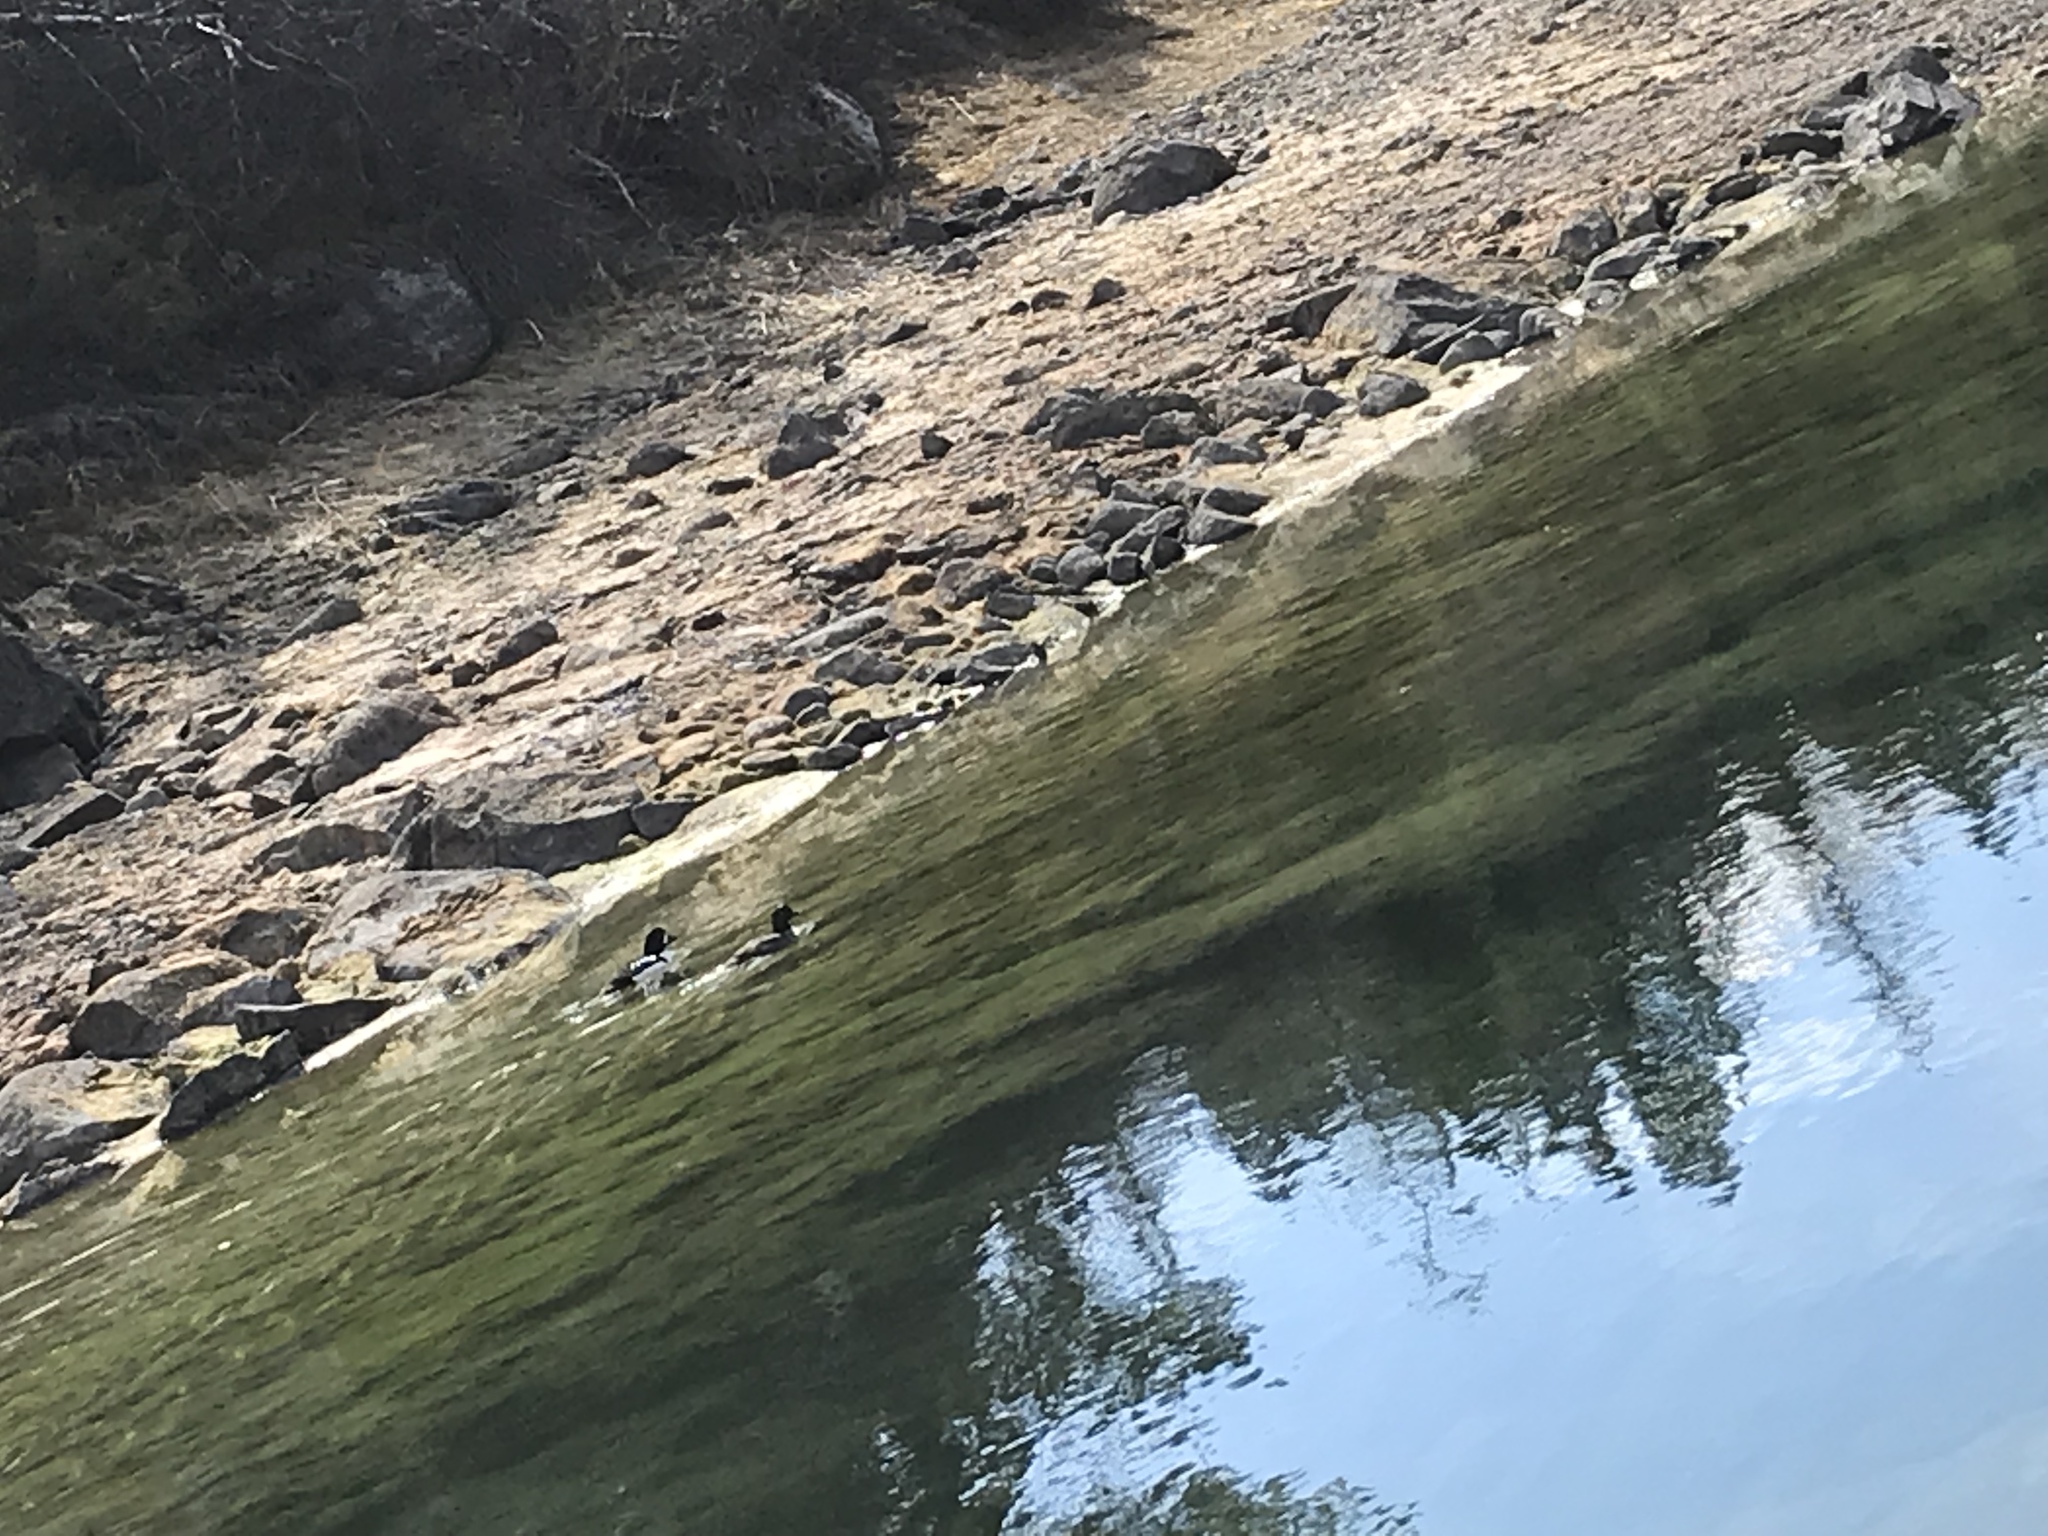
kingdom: Animalia
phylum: Chordata
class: Aves
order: Anseriformes
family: Anatidae
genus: Bucephala
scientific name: Bucephala islandica
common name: Barrow's goldeneye
